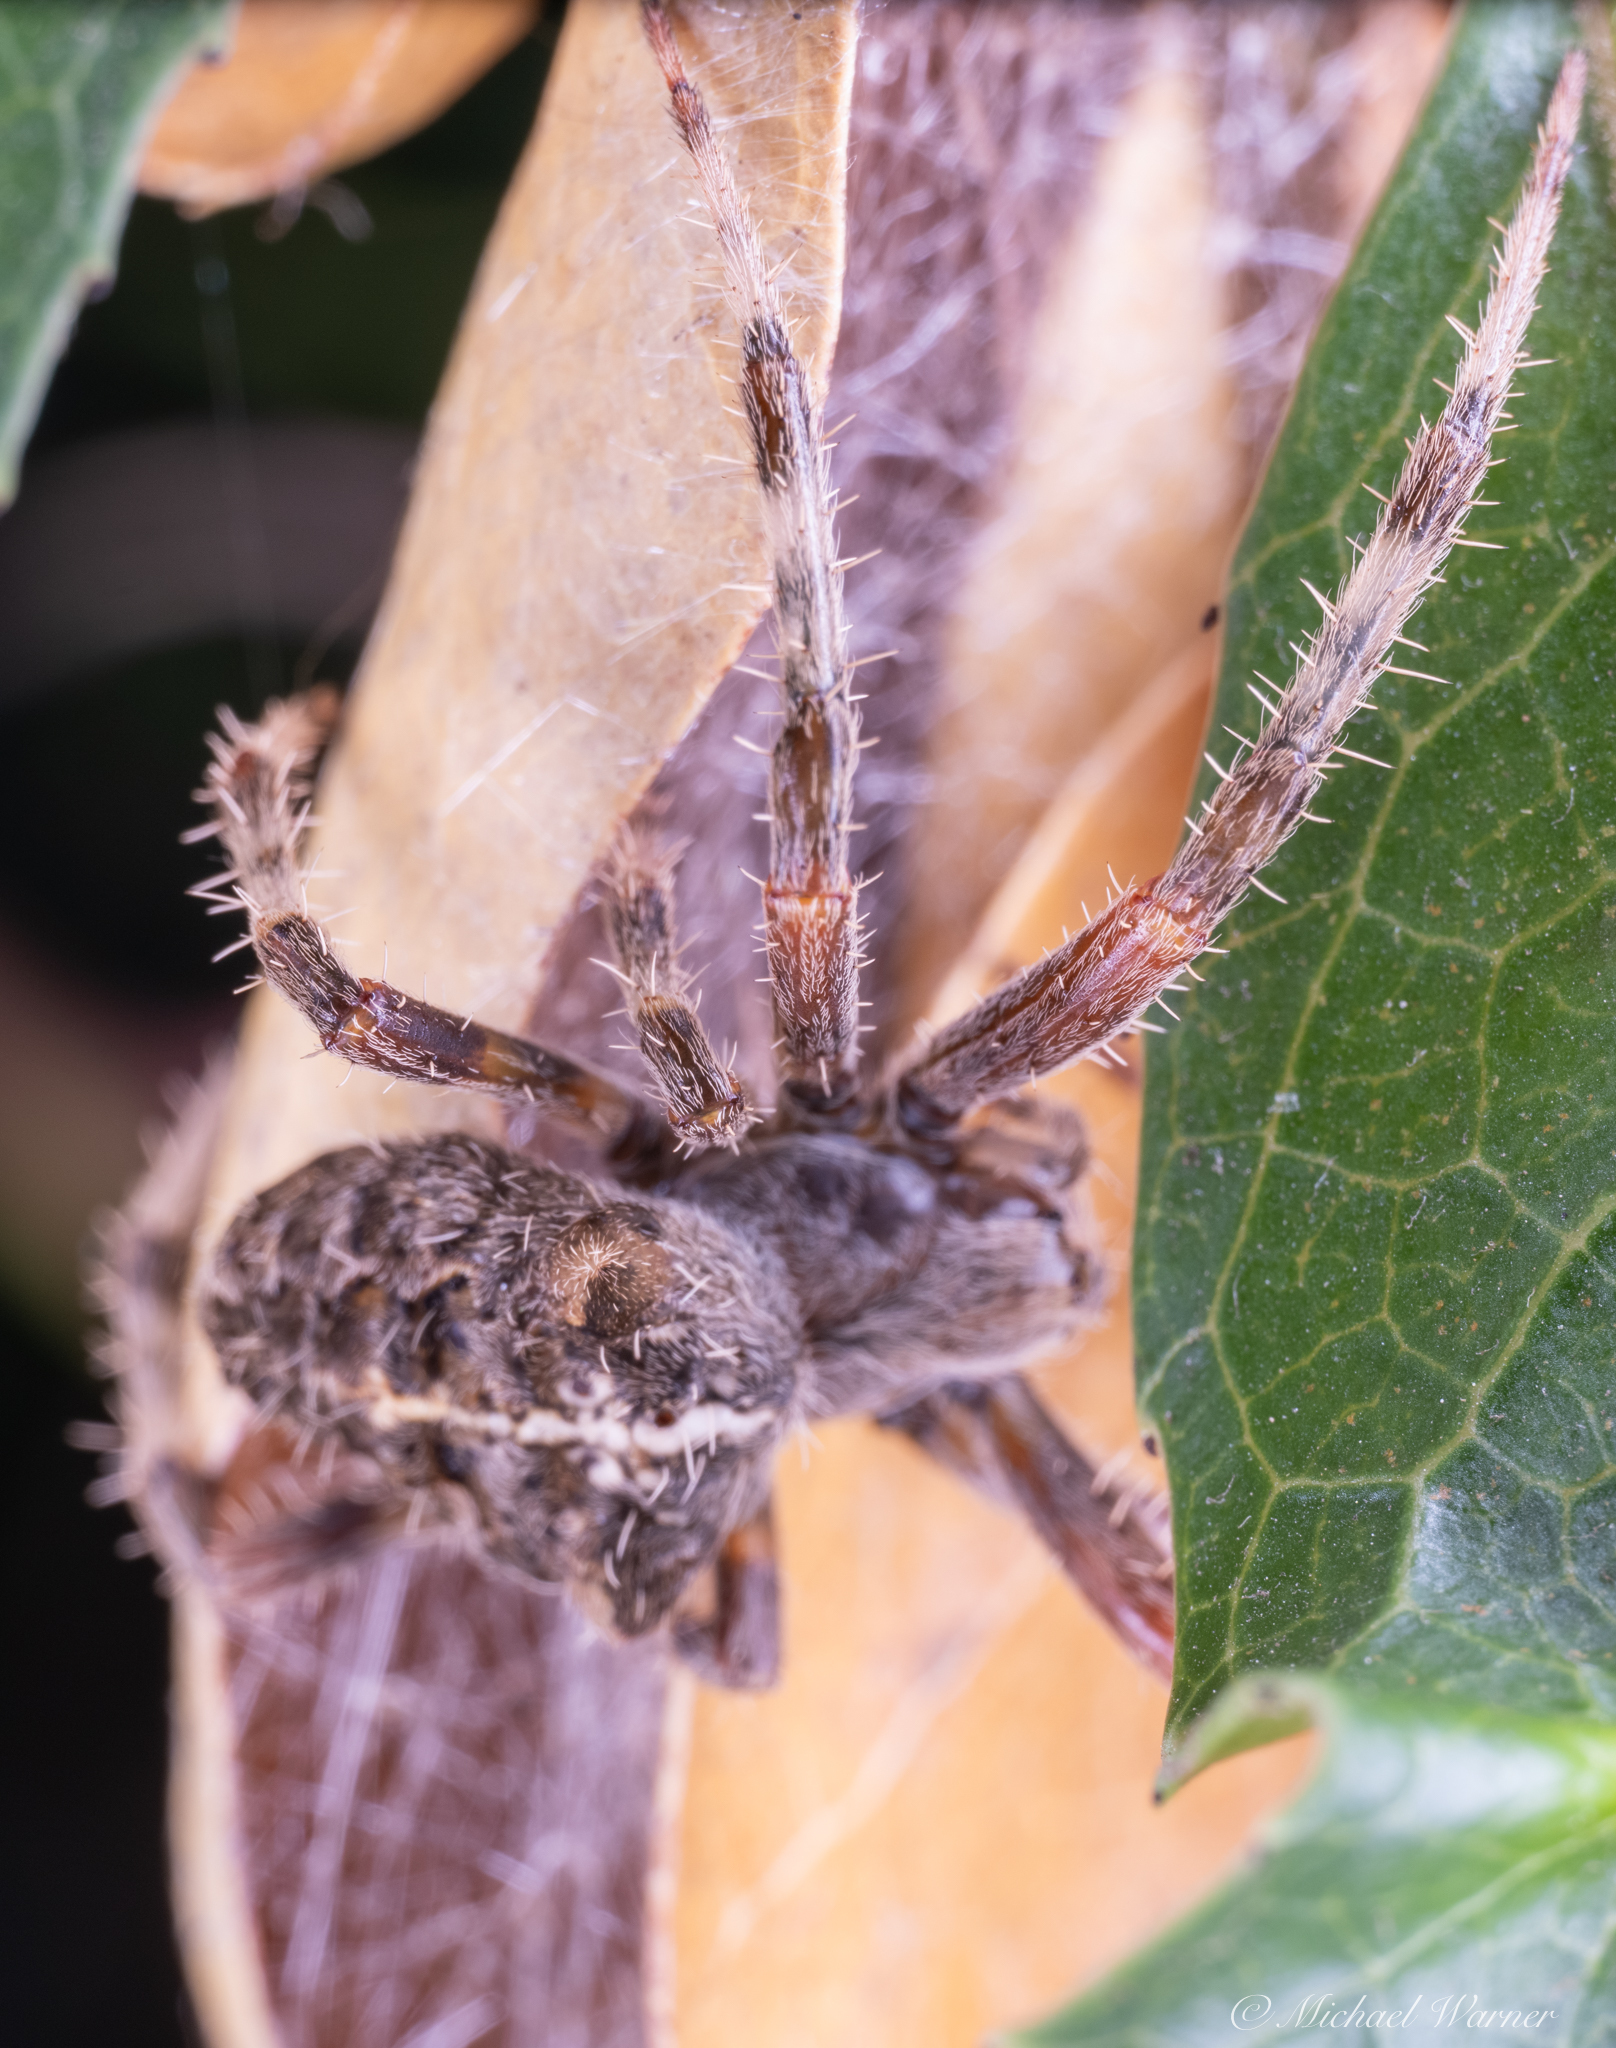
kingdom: Animalia
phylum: Arthropoda
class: Arachnida
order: Araneae
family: Araneidae
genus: Araneus
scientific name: Araneus gemma
